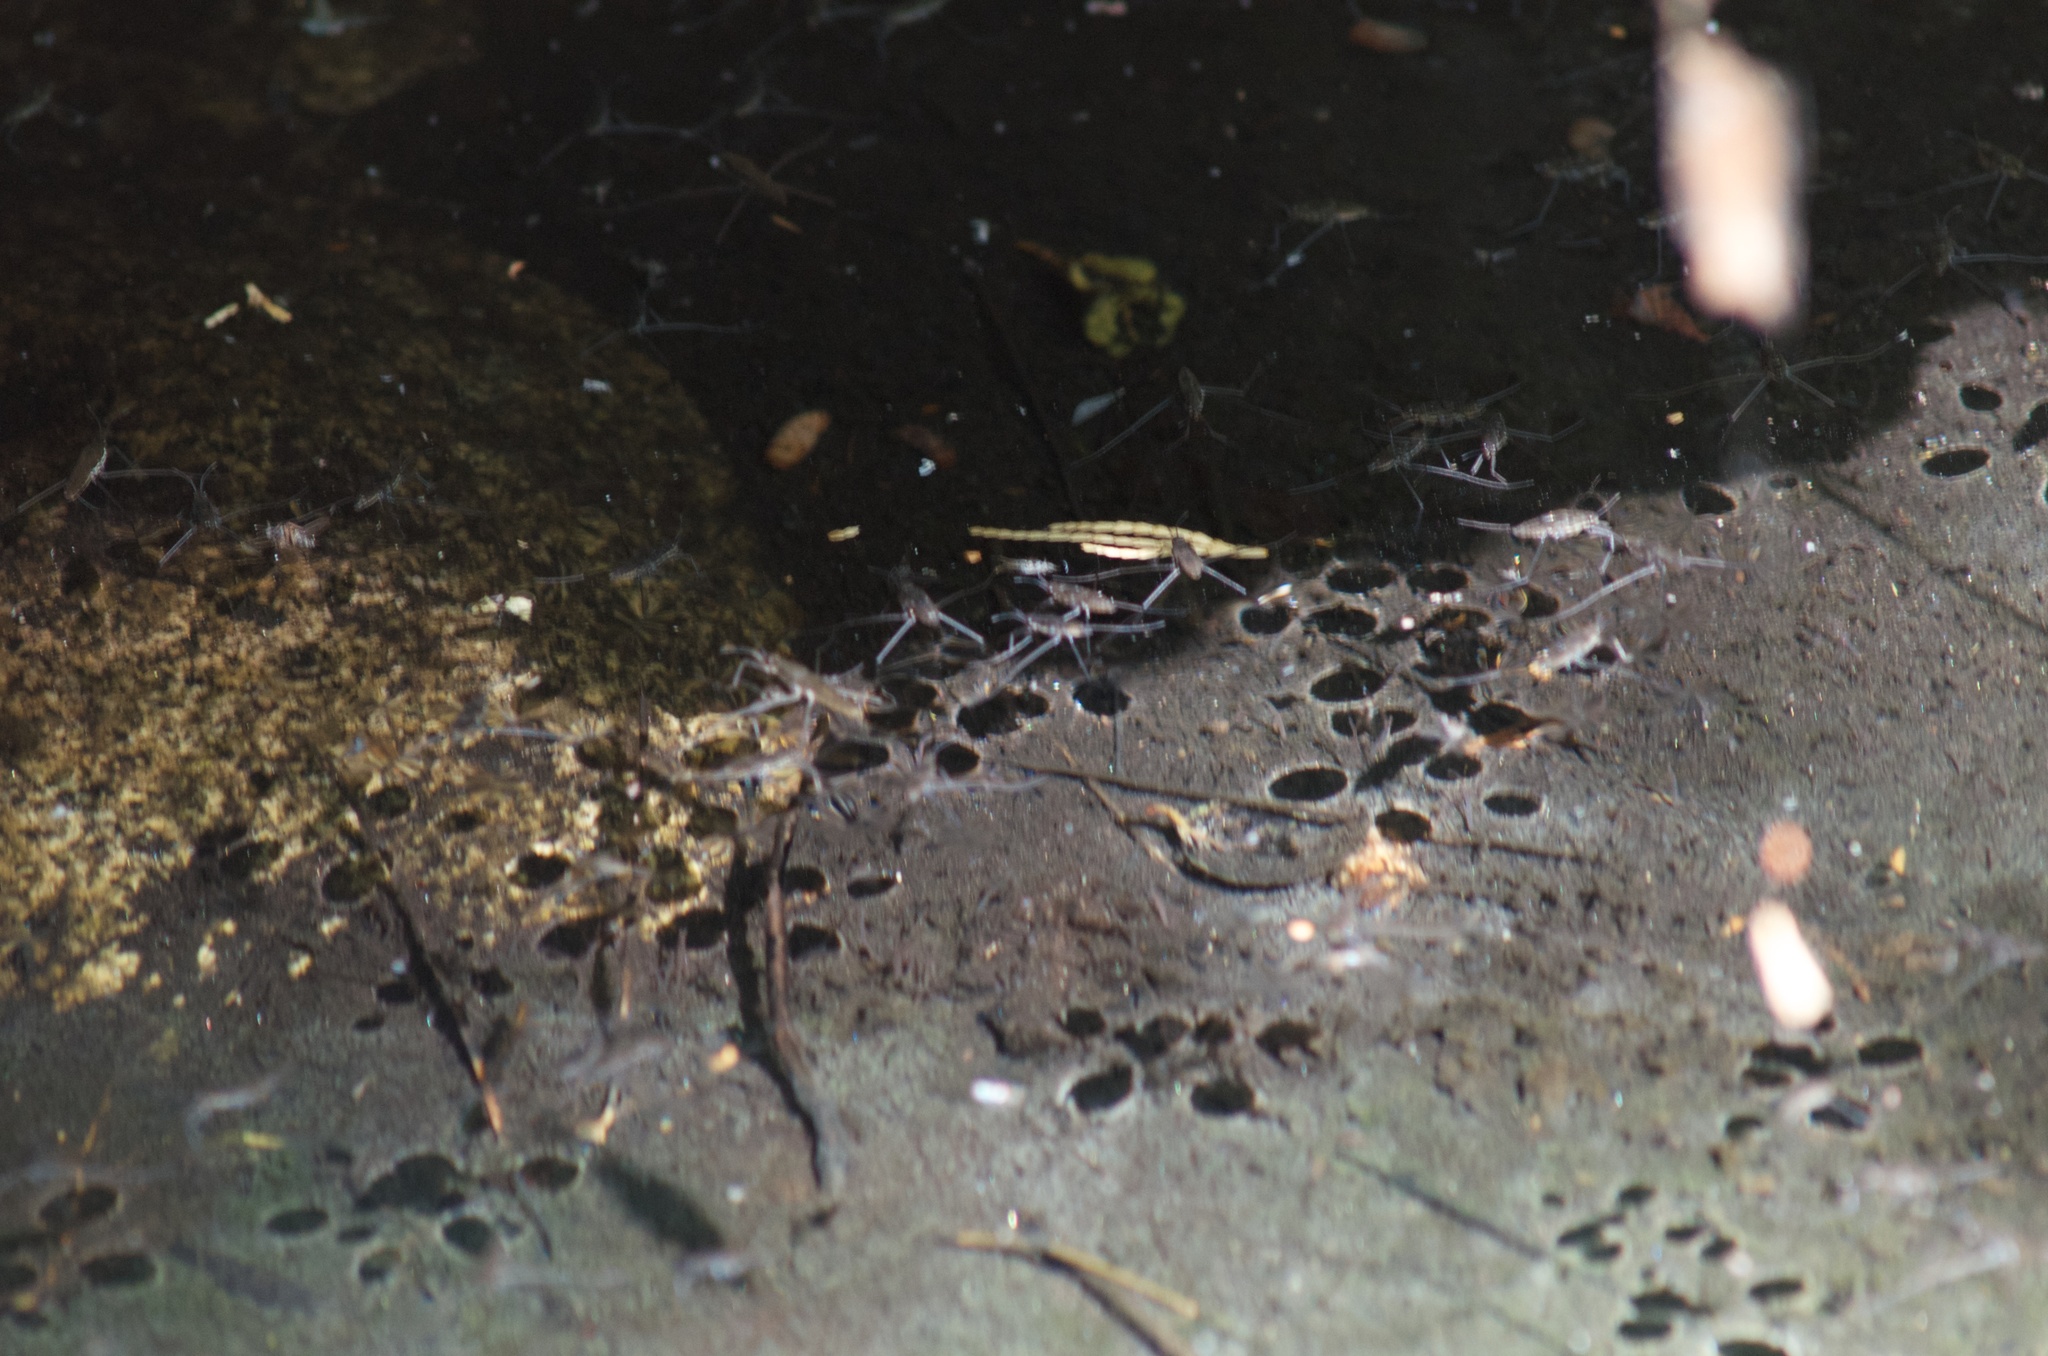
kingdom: Animalia
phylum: Arthropoda
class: Insecta
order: Hemiptera
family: Gerridae
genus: Aquarius
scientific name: Aquarius remigis
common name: Common water strider
